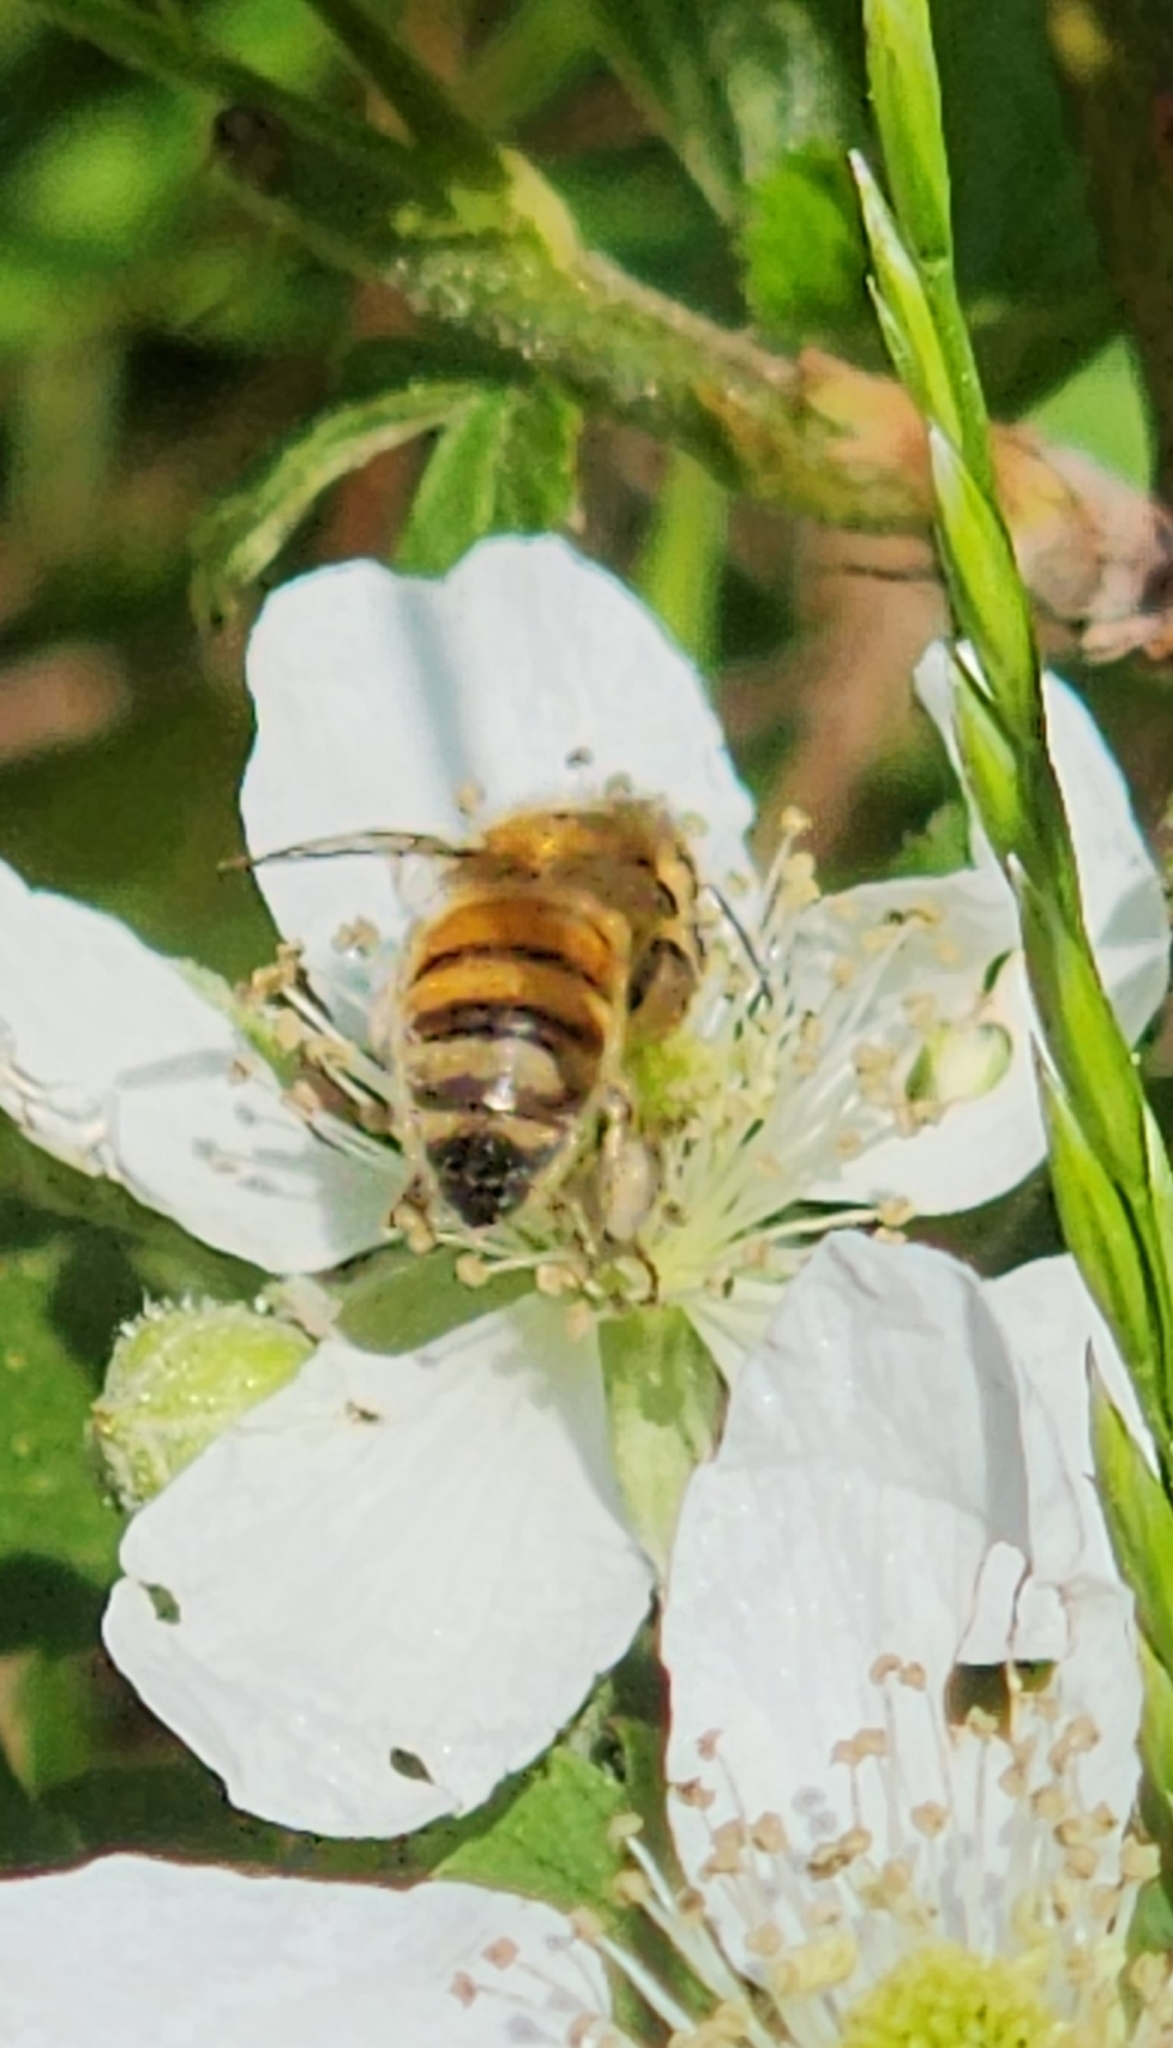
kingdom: Animalia
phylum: Arthropoda
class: Insecta
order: Hymenoptera
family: Apidae
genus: Apis
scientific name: Apis mellifera
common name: Honey bee
